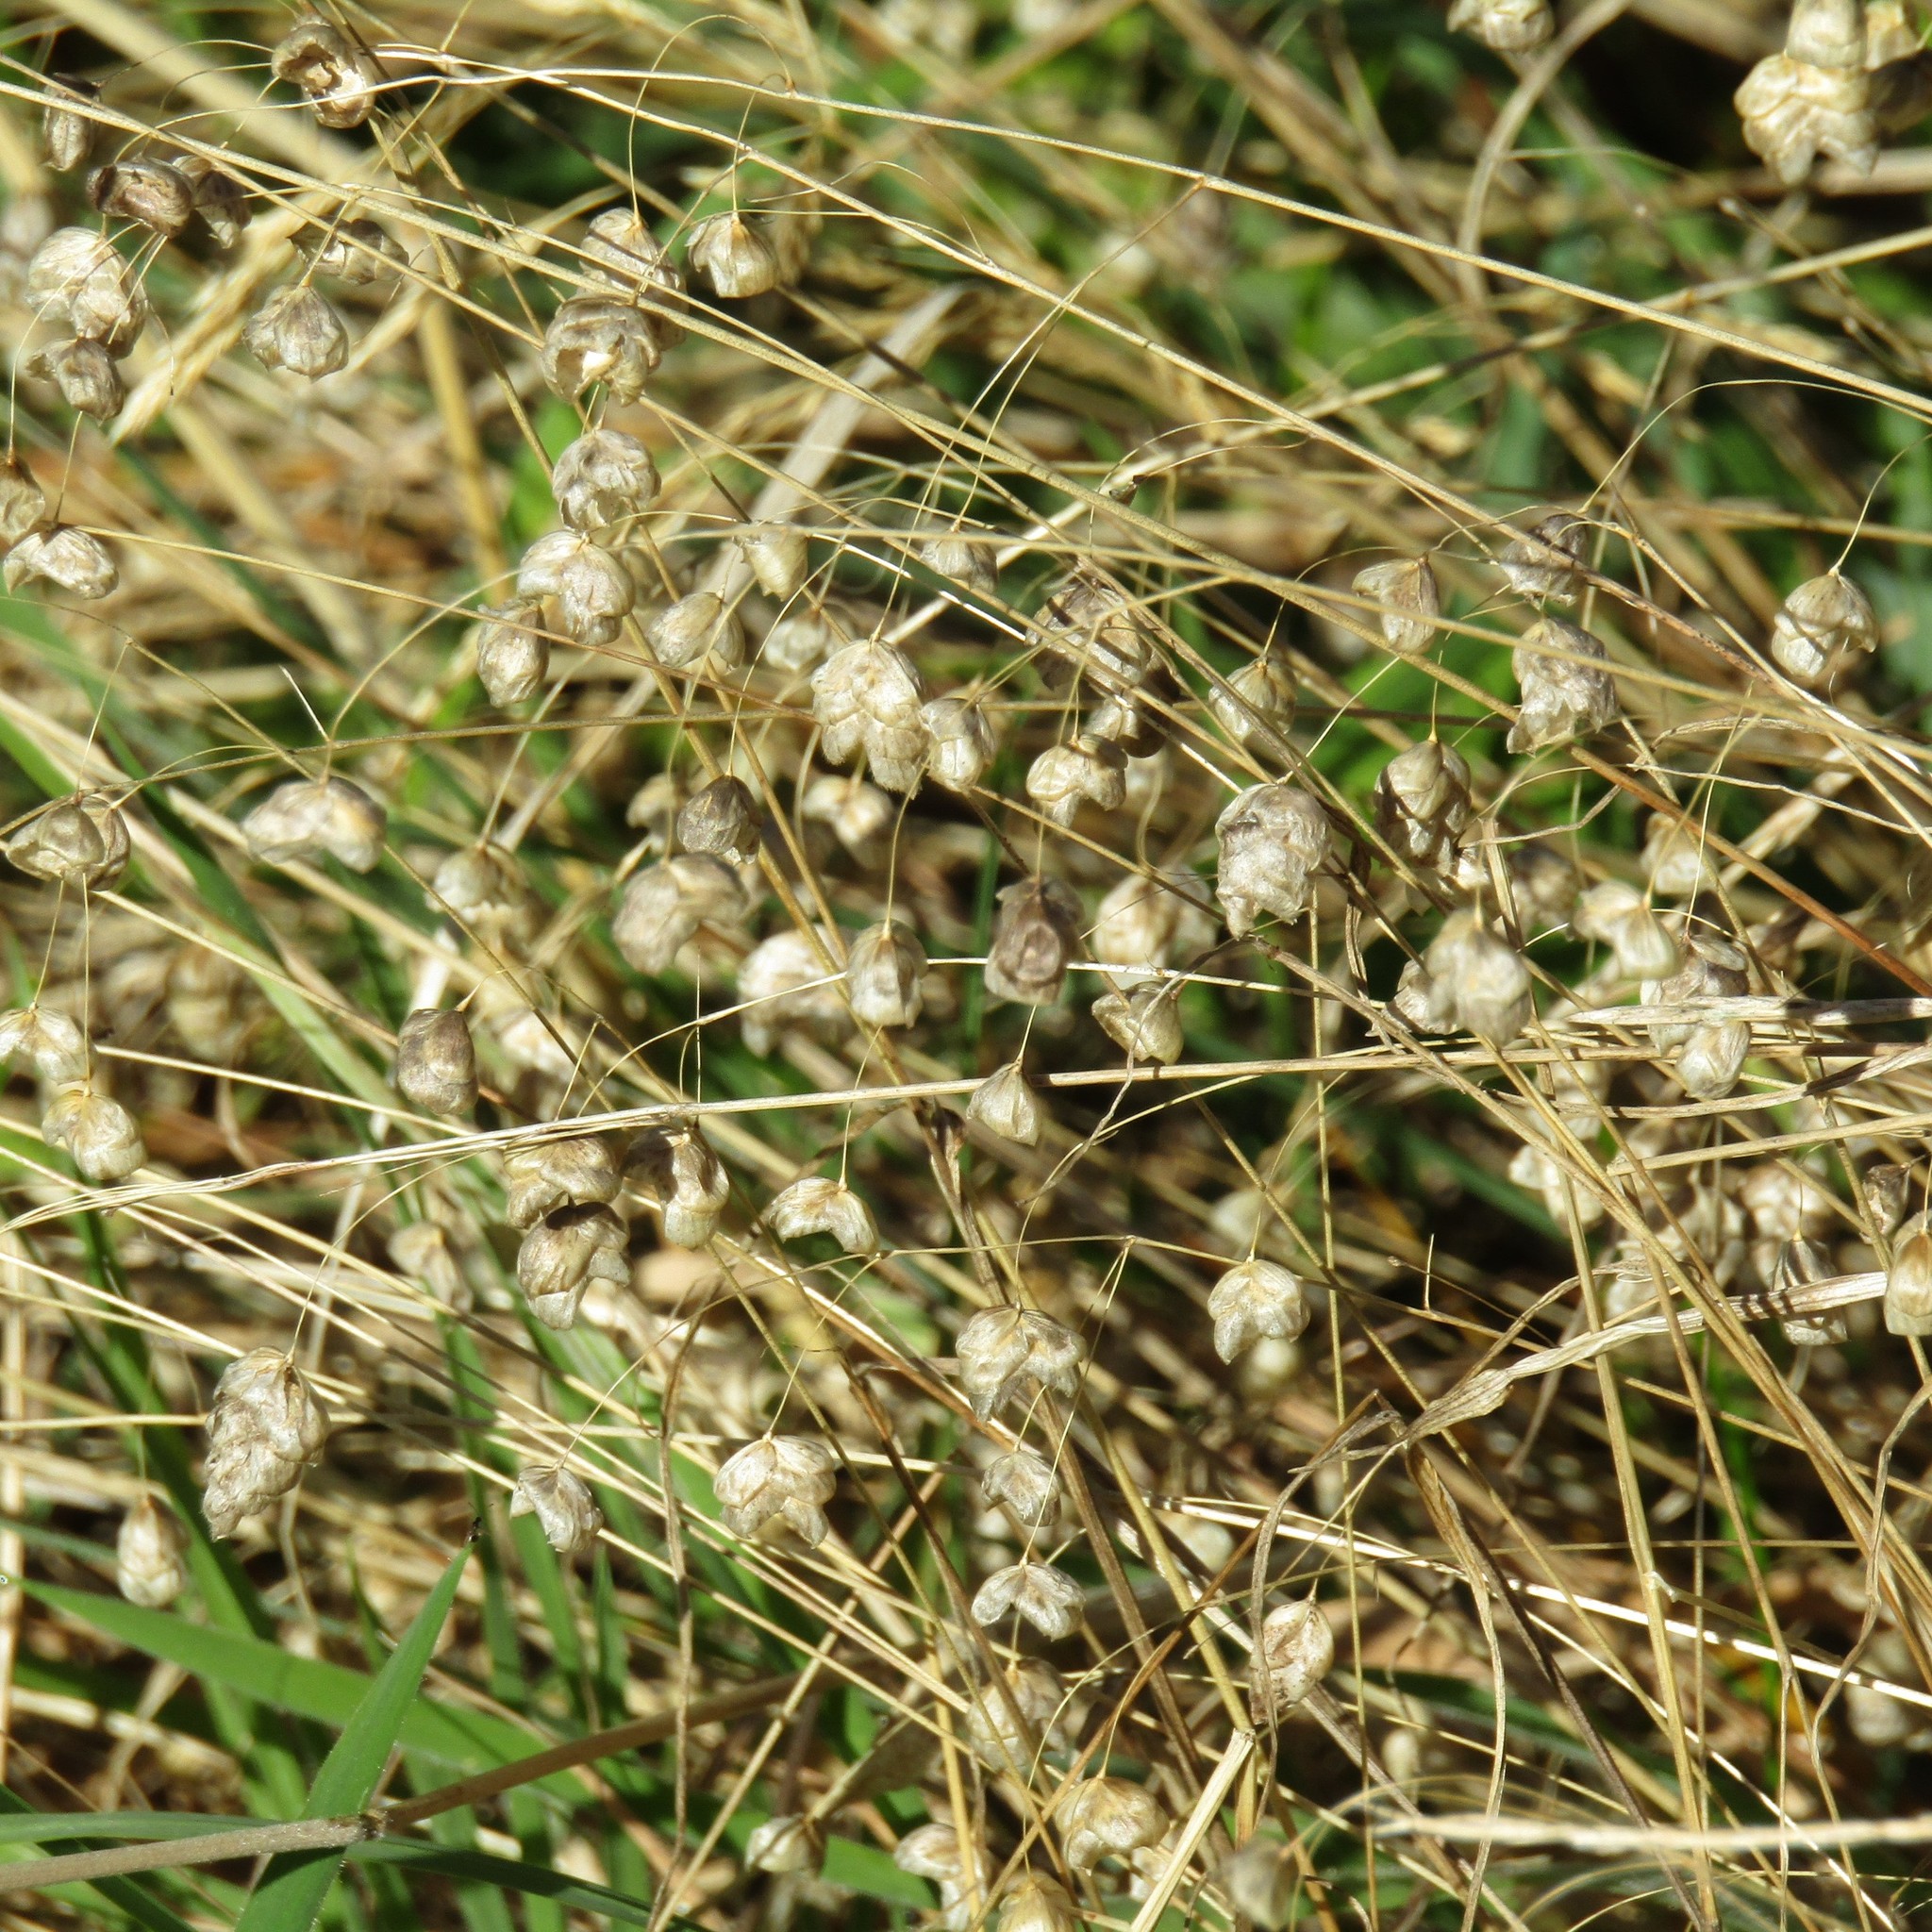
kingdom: Plantae
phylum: Tracheophyta
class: Liliopsida
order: Poales
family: Poaceae
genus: Briza
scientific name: Briza maxima
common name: Big quakinggrass
